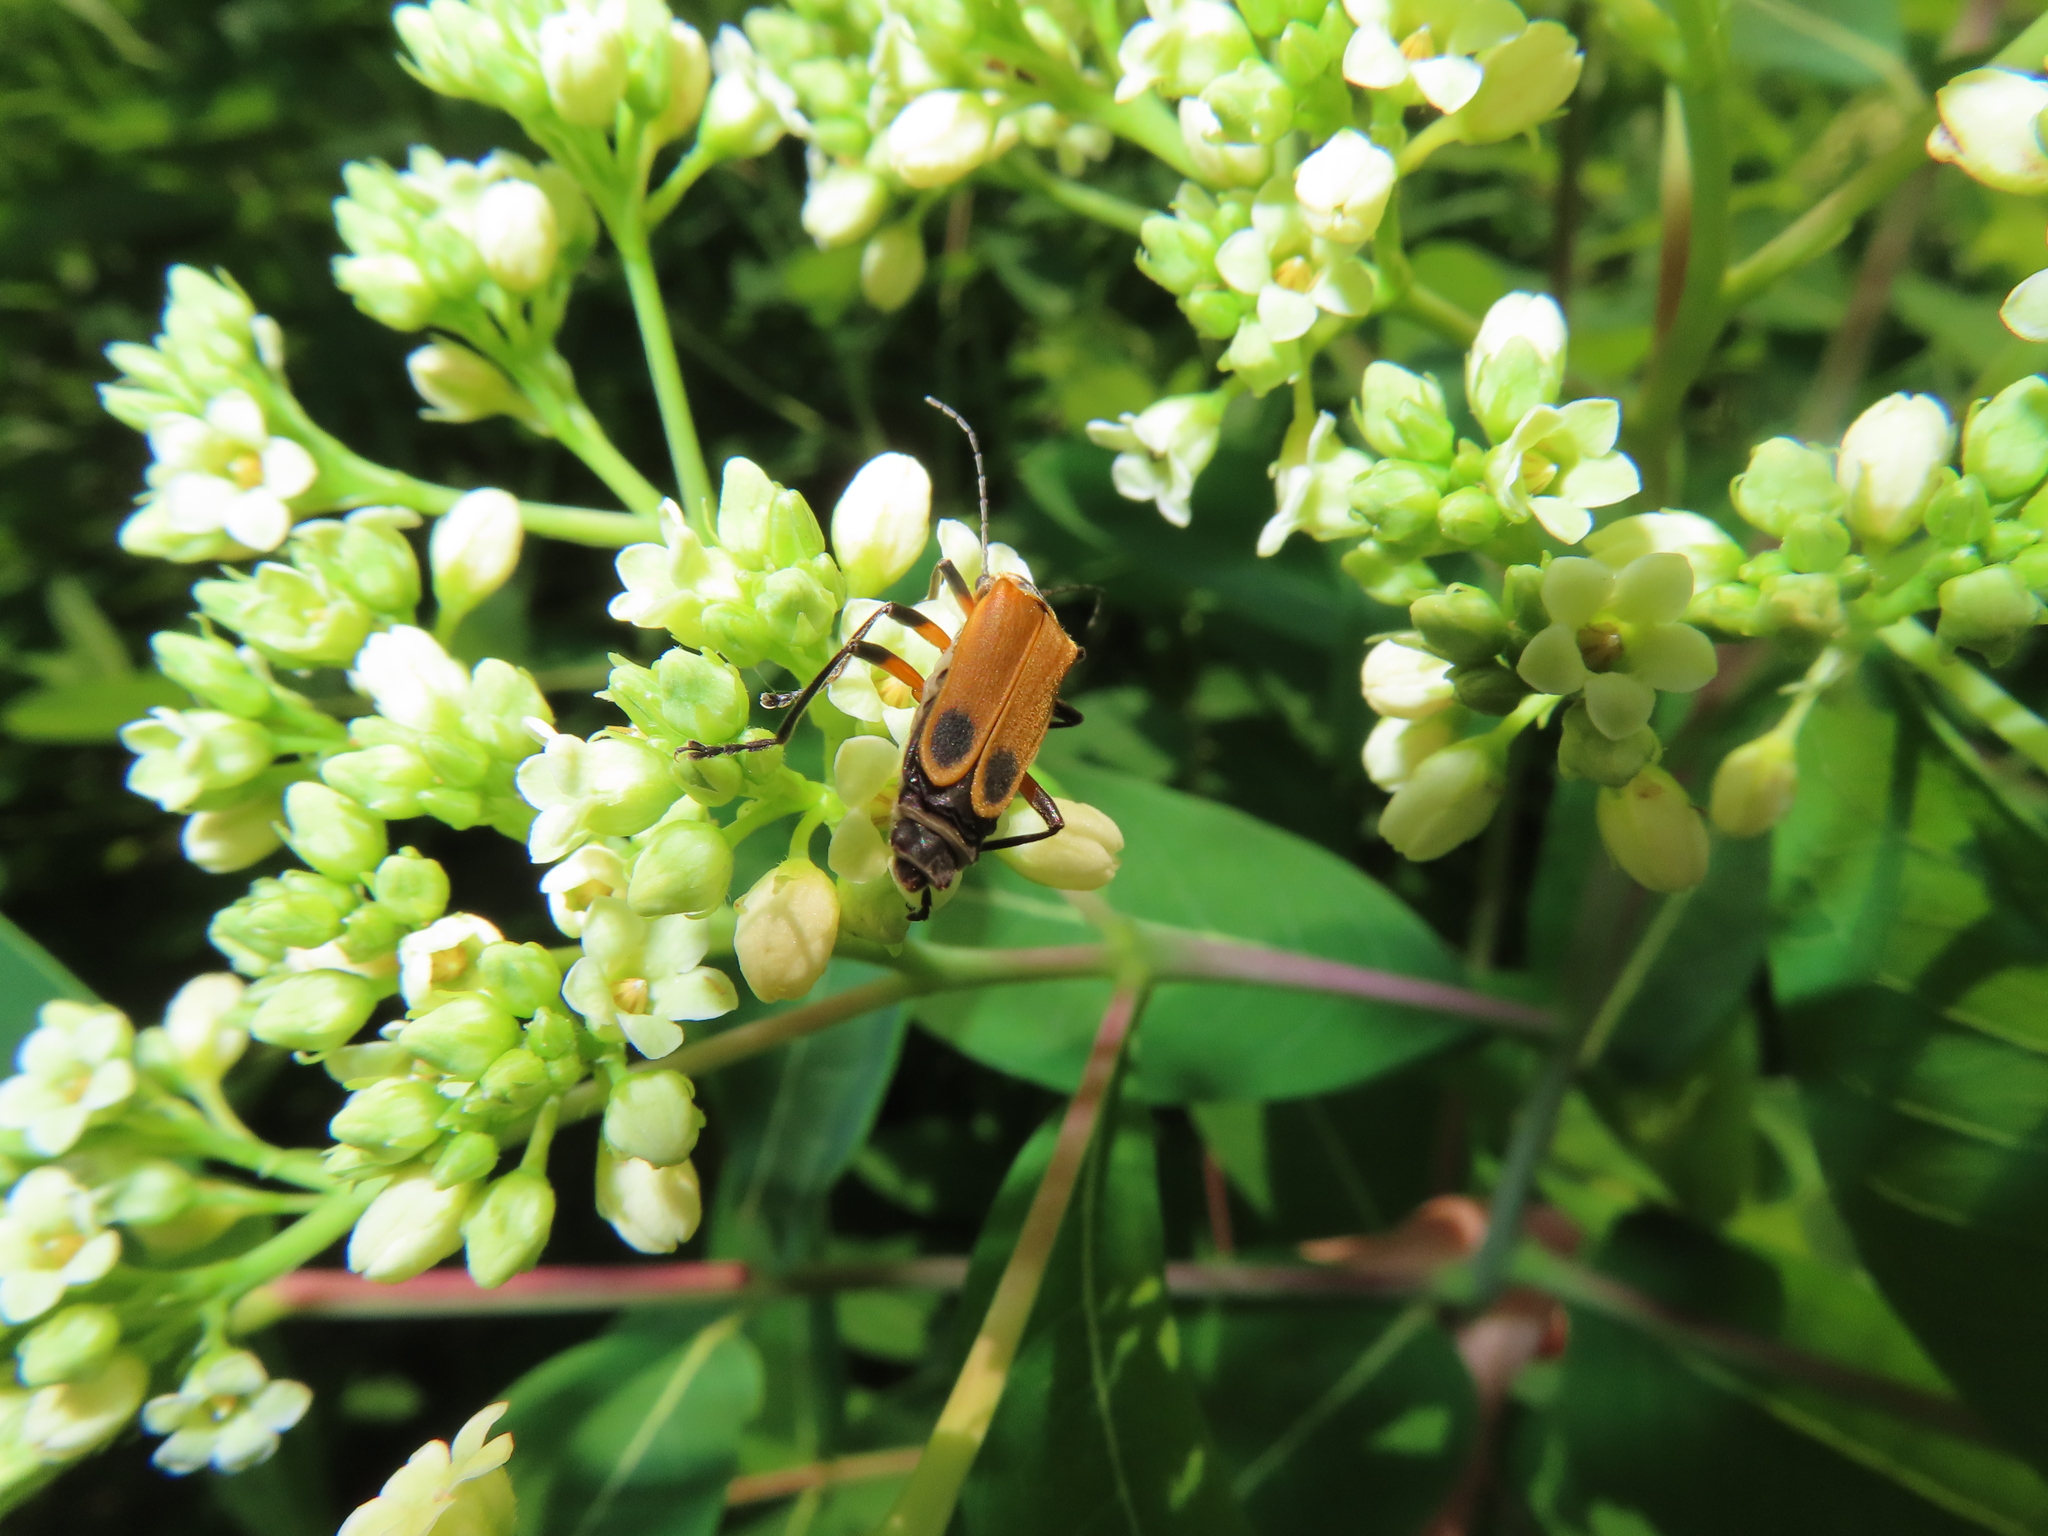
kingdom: Animalia
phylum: Arthropoda
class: Insecta
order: Coleoptera
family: Cantharidae
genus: Chauliognathus
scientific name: Chauliognathus marginatus
